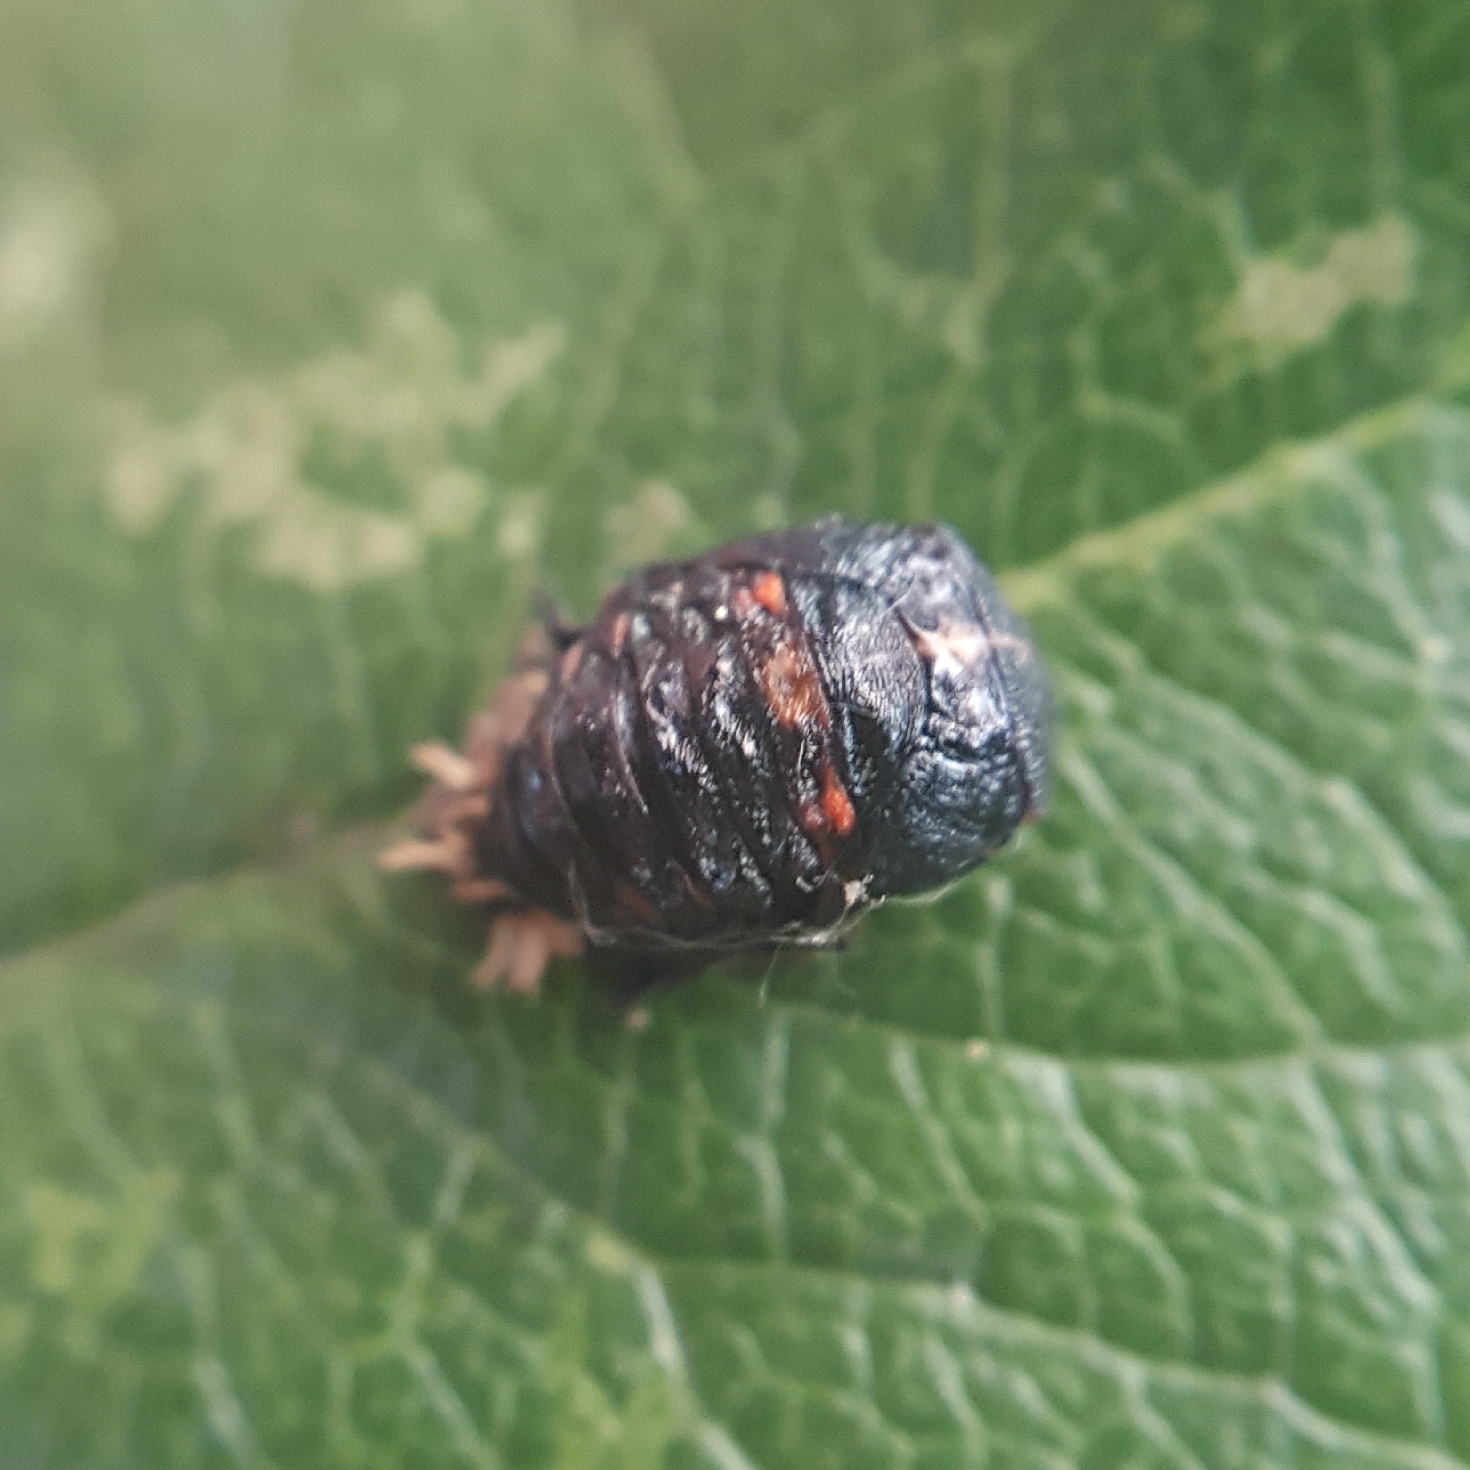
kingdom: Animalia
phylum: Arthropoda
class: Insecta
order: Coleoptera
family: Coccinellidae
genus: Harmonia
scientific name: Harmonia axyridis
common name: Harlequin ladybird
